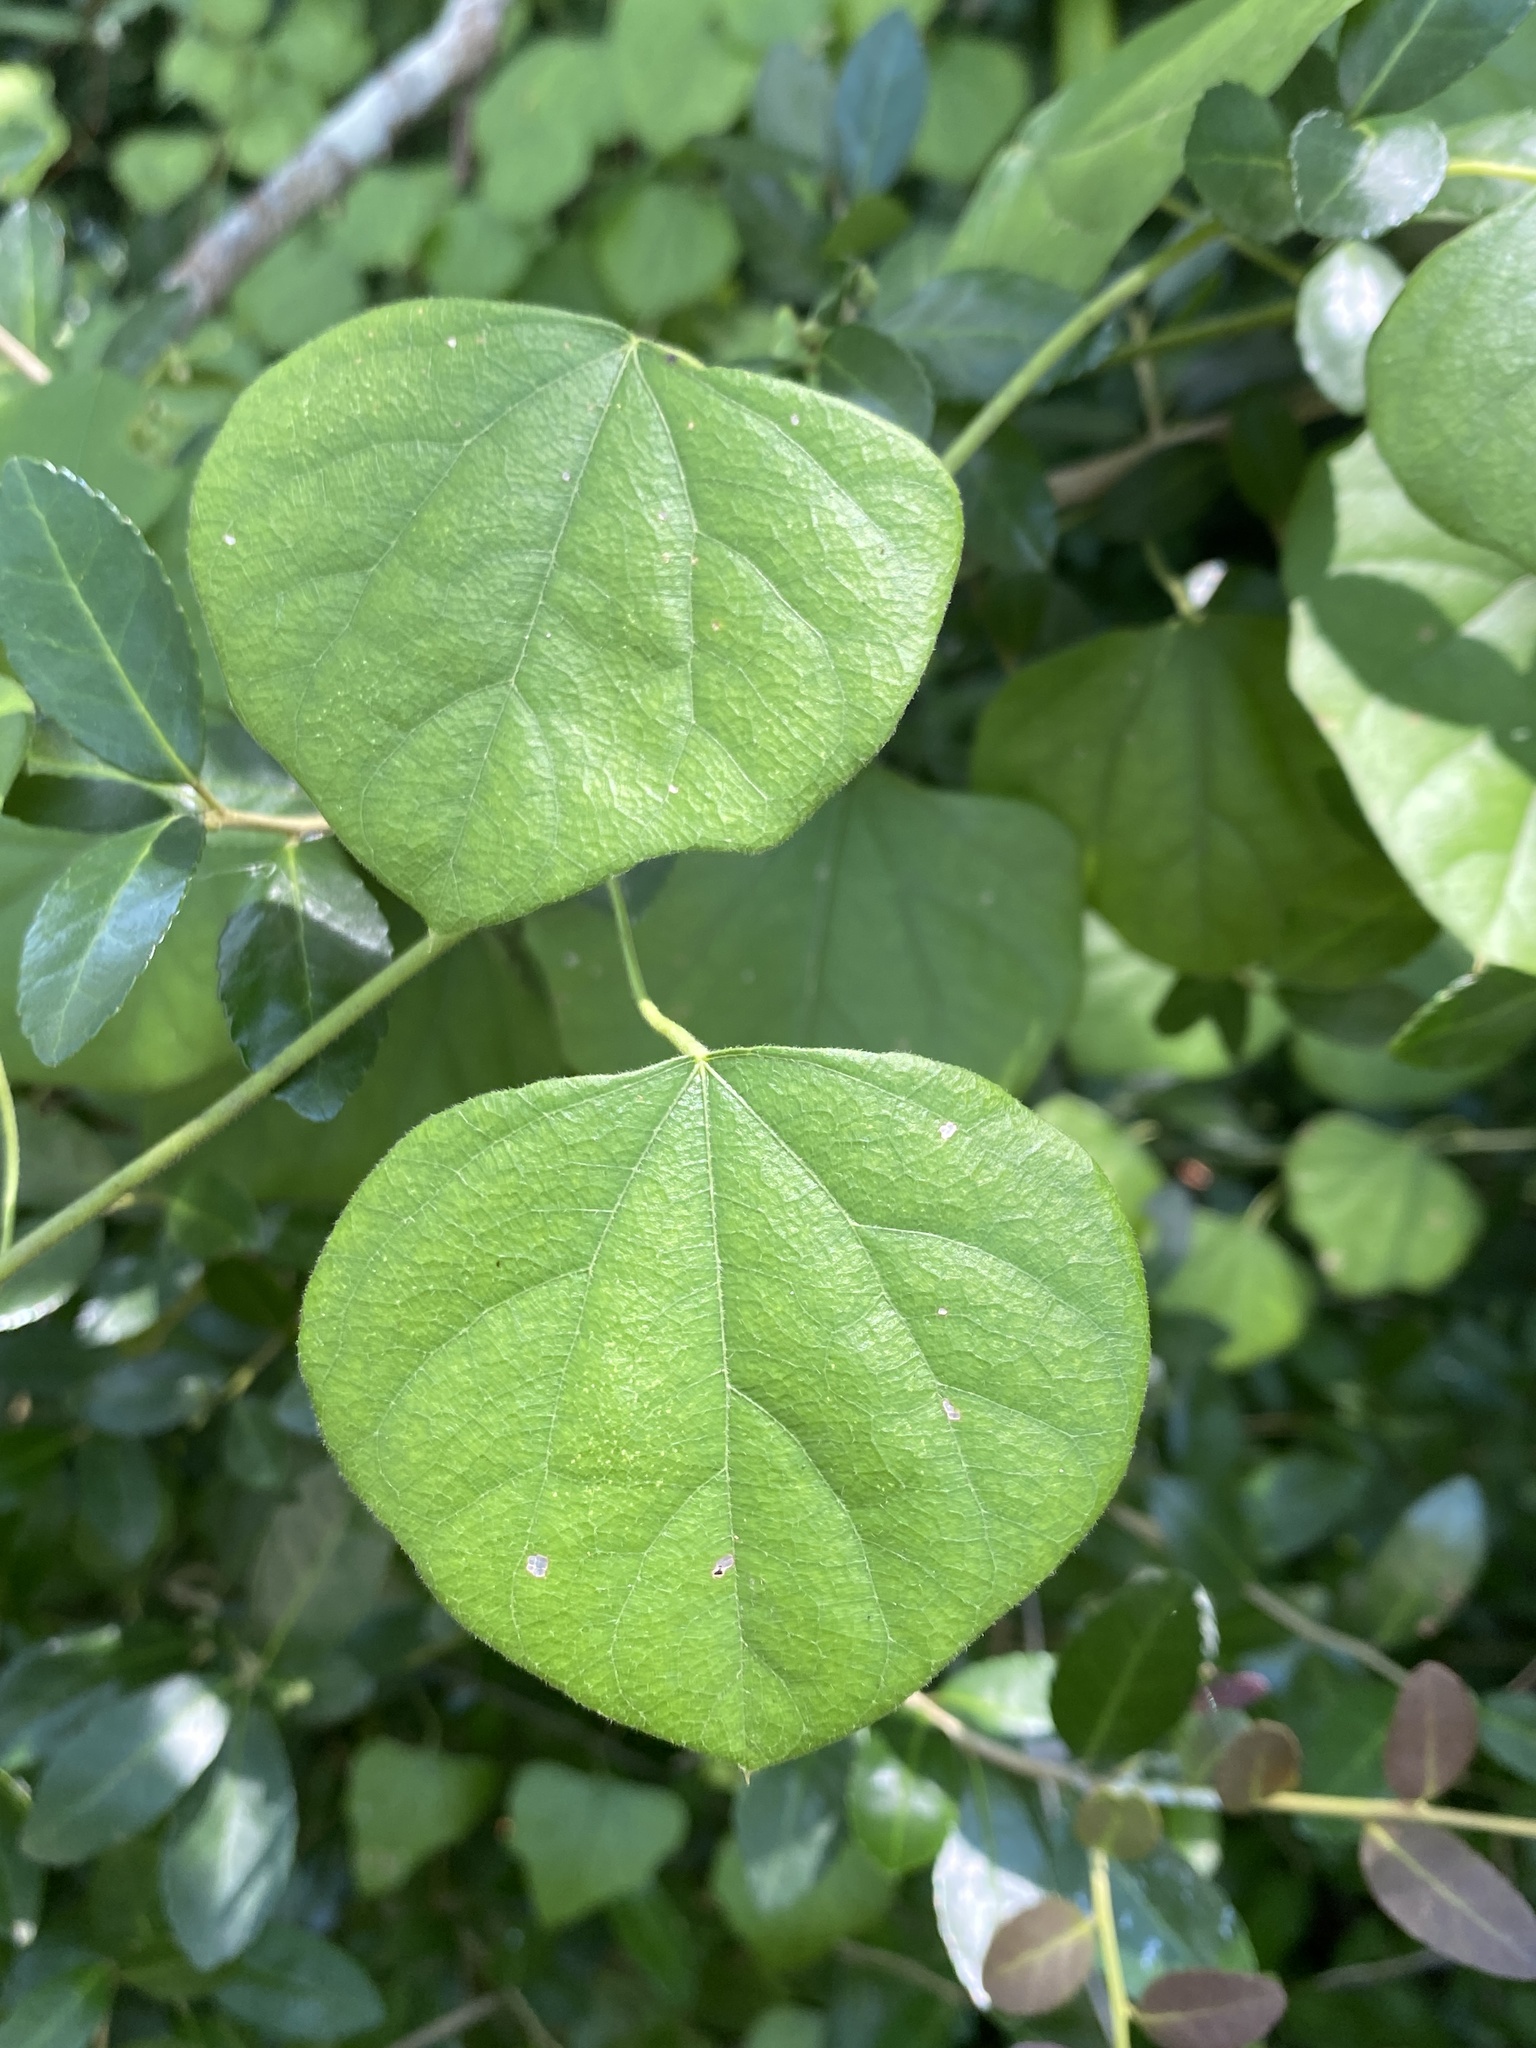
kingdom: Plantae
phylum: Tracheophyta
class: Magnoliopsida
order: Ranunculales
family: Menispermaceae
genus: Cocculus
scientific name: Cocculus carolinus
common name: Carolina moonseed
